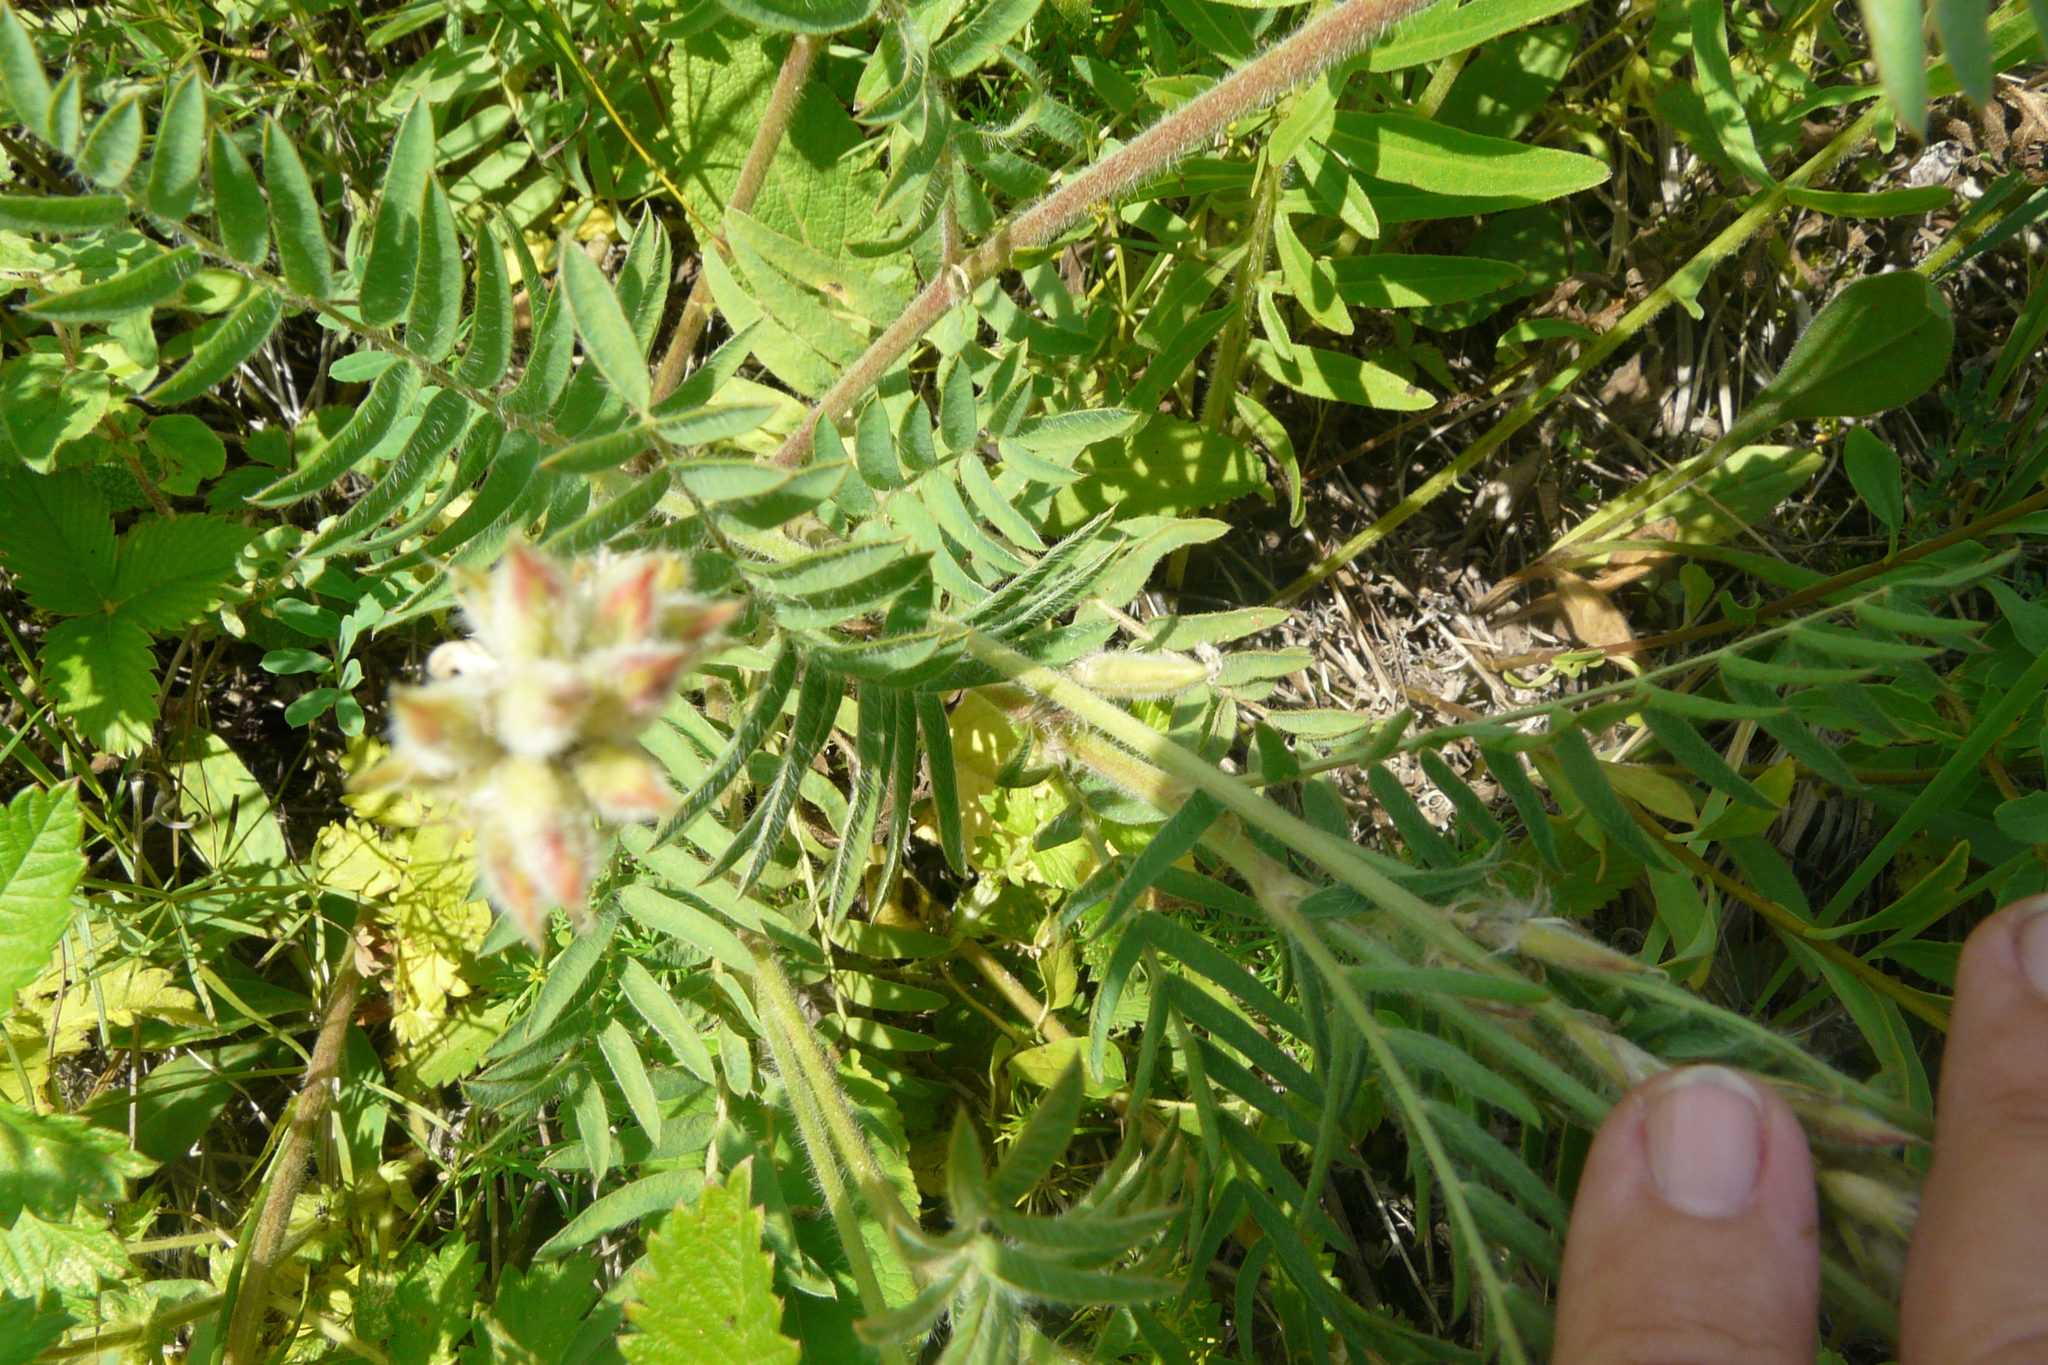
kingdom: Plantae
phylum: Tracheophyta
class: Magnoliopsida
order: Fabales
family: Fabaceae
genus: Oxytropis
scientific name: Oxytropis pilosa
